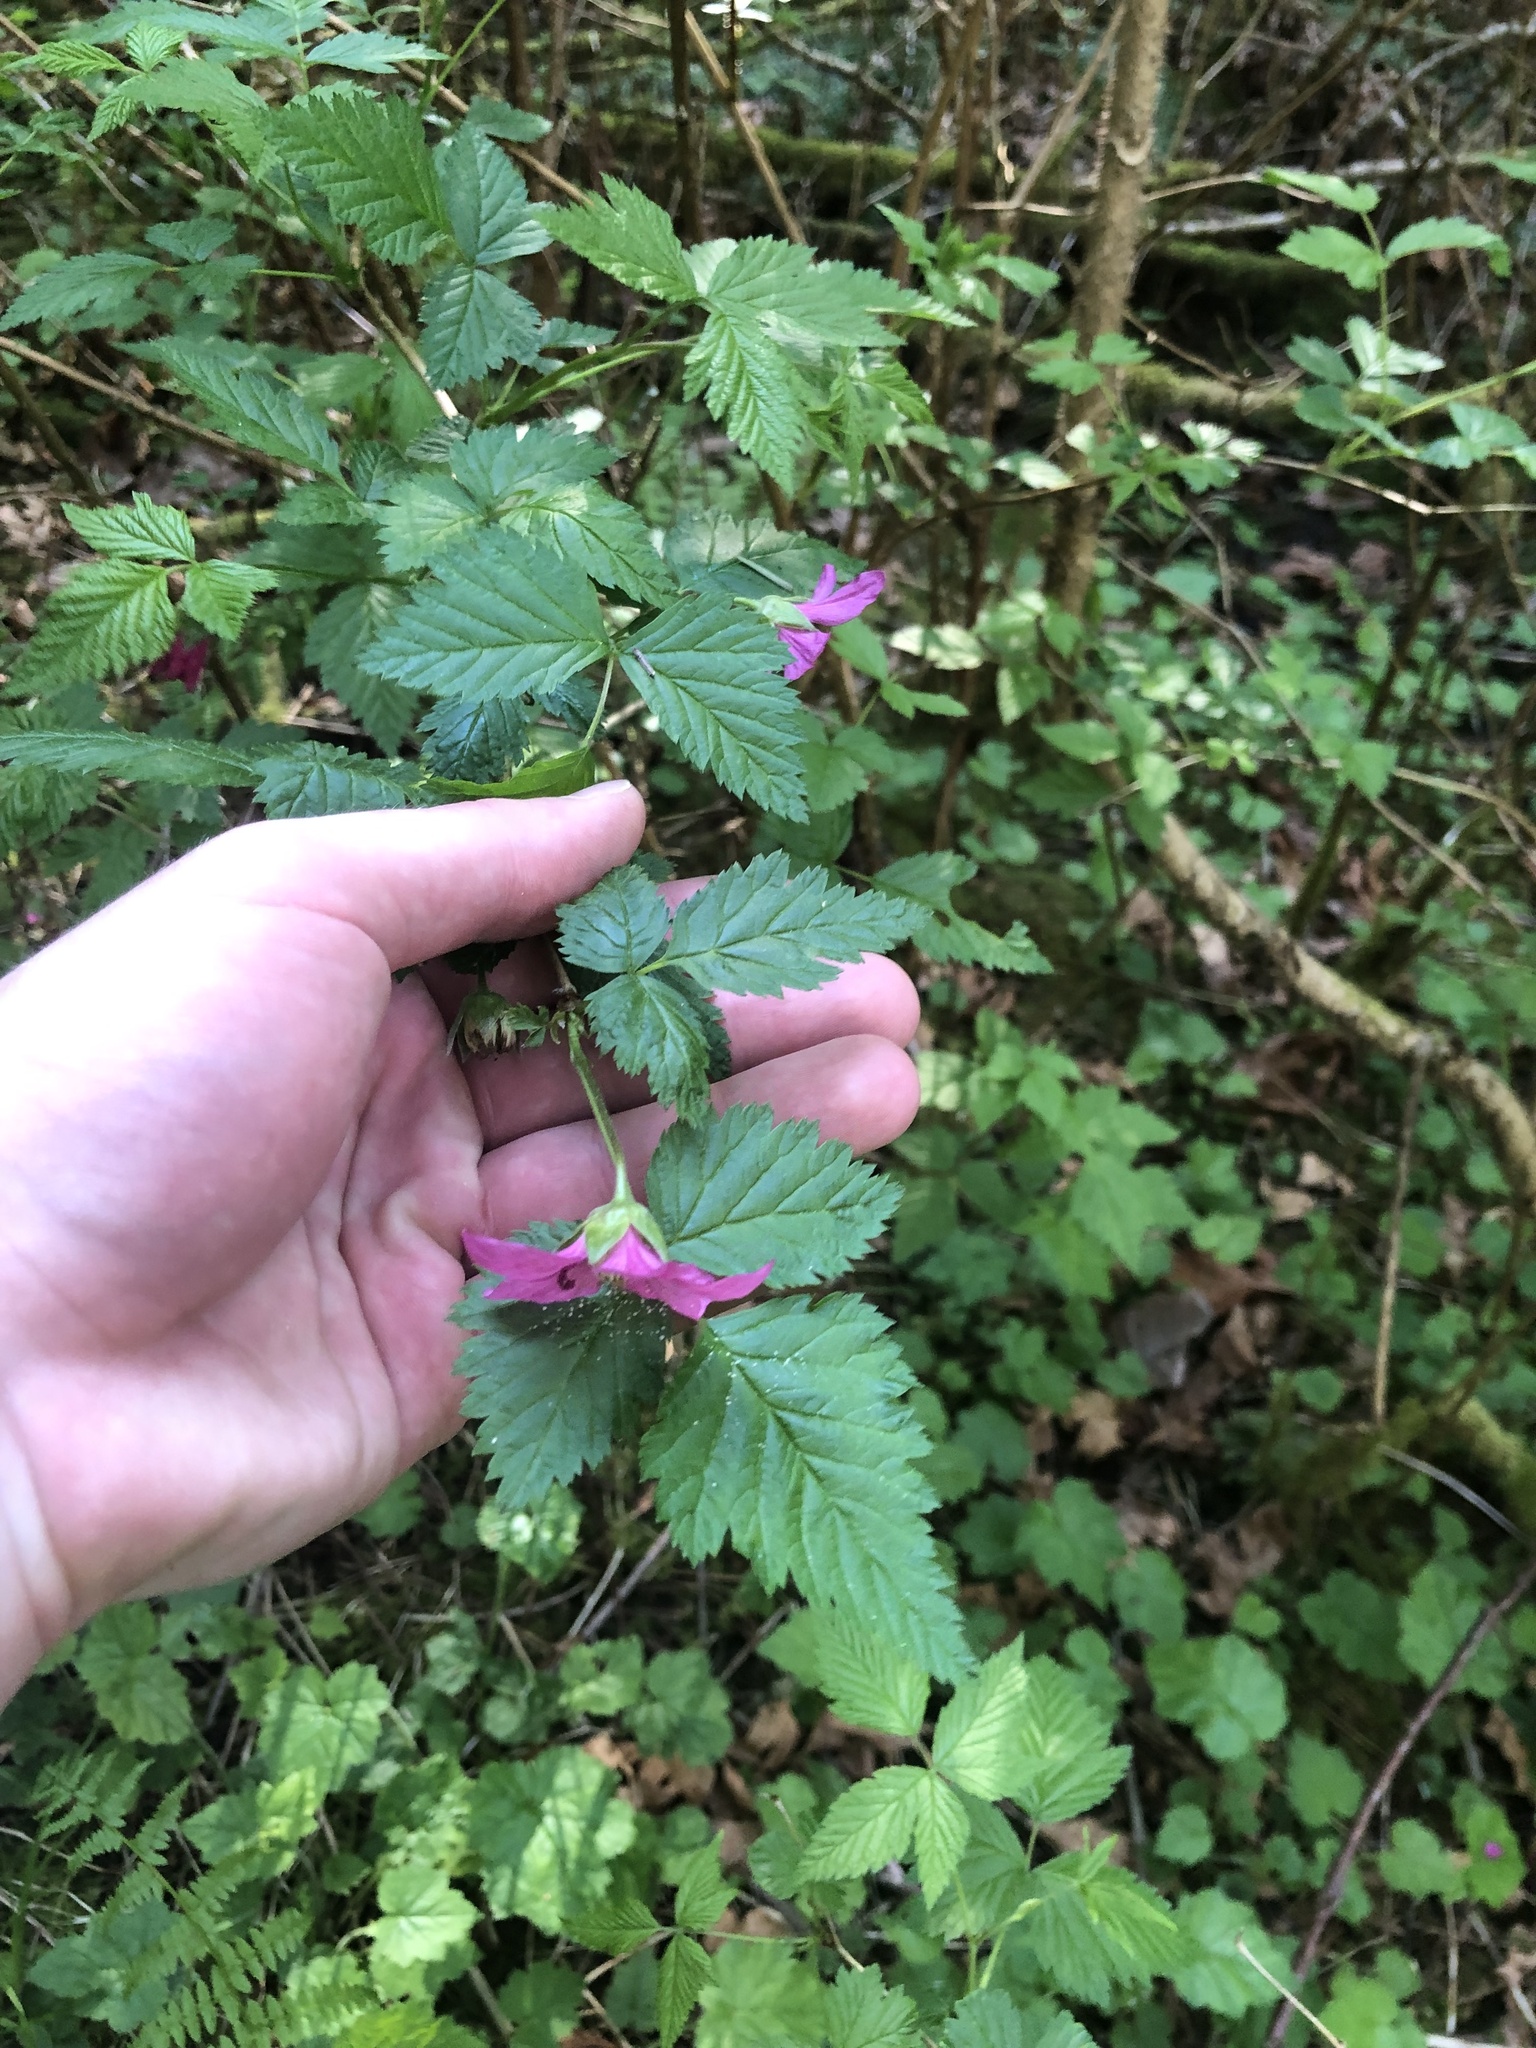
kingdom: Plantae
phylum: Tracheophyta
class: Magnoliopsida
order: Rosales
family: Rosaceae
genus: Rubus
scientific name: Rubus spectabilis
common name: Salmonberry
